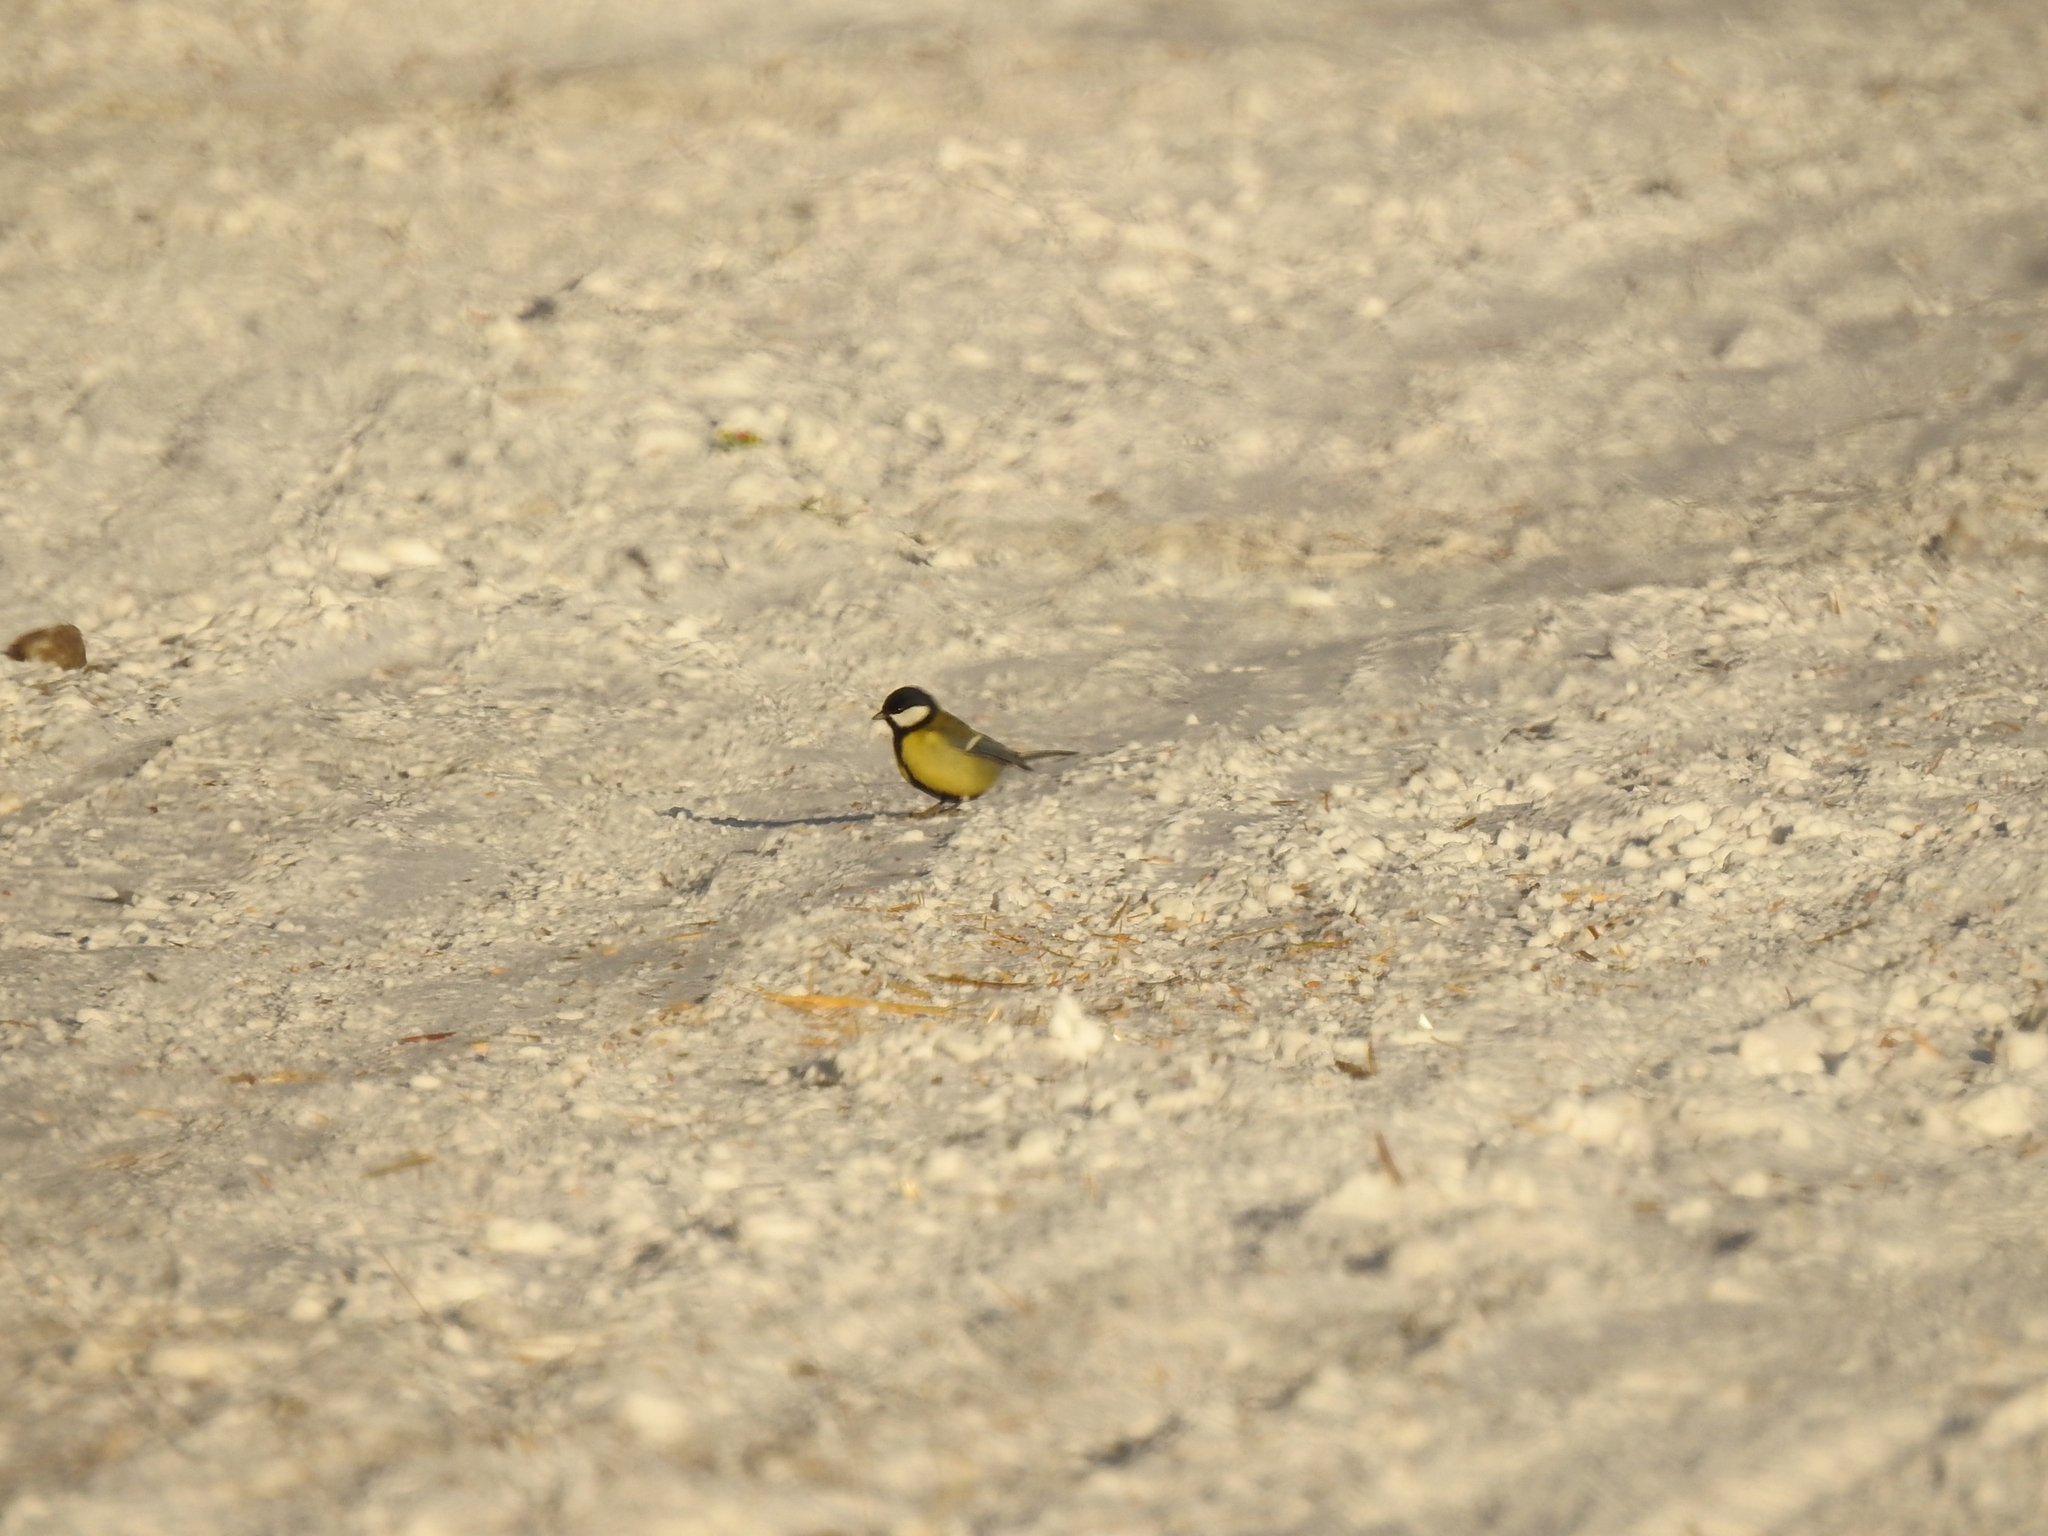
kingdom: Animalia
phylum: Chordata
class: Aves
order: Passeriformes
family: Paridae
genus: Parus
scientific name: Parus major
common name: Great tit
